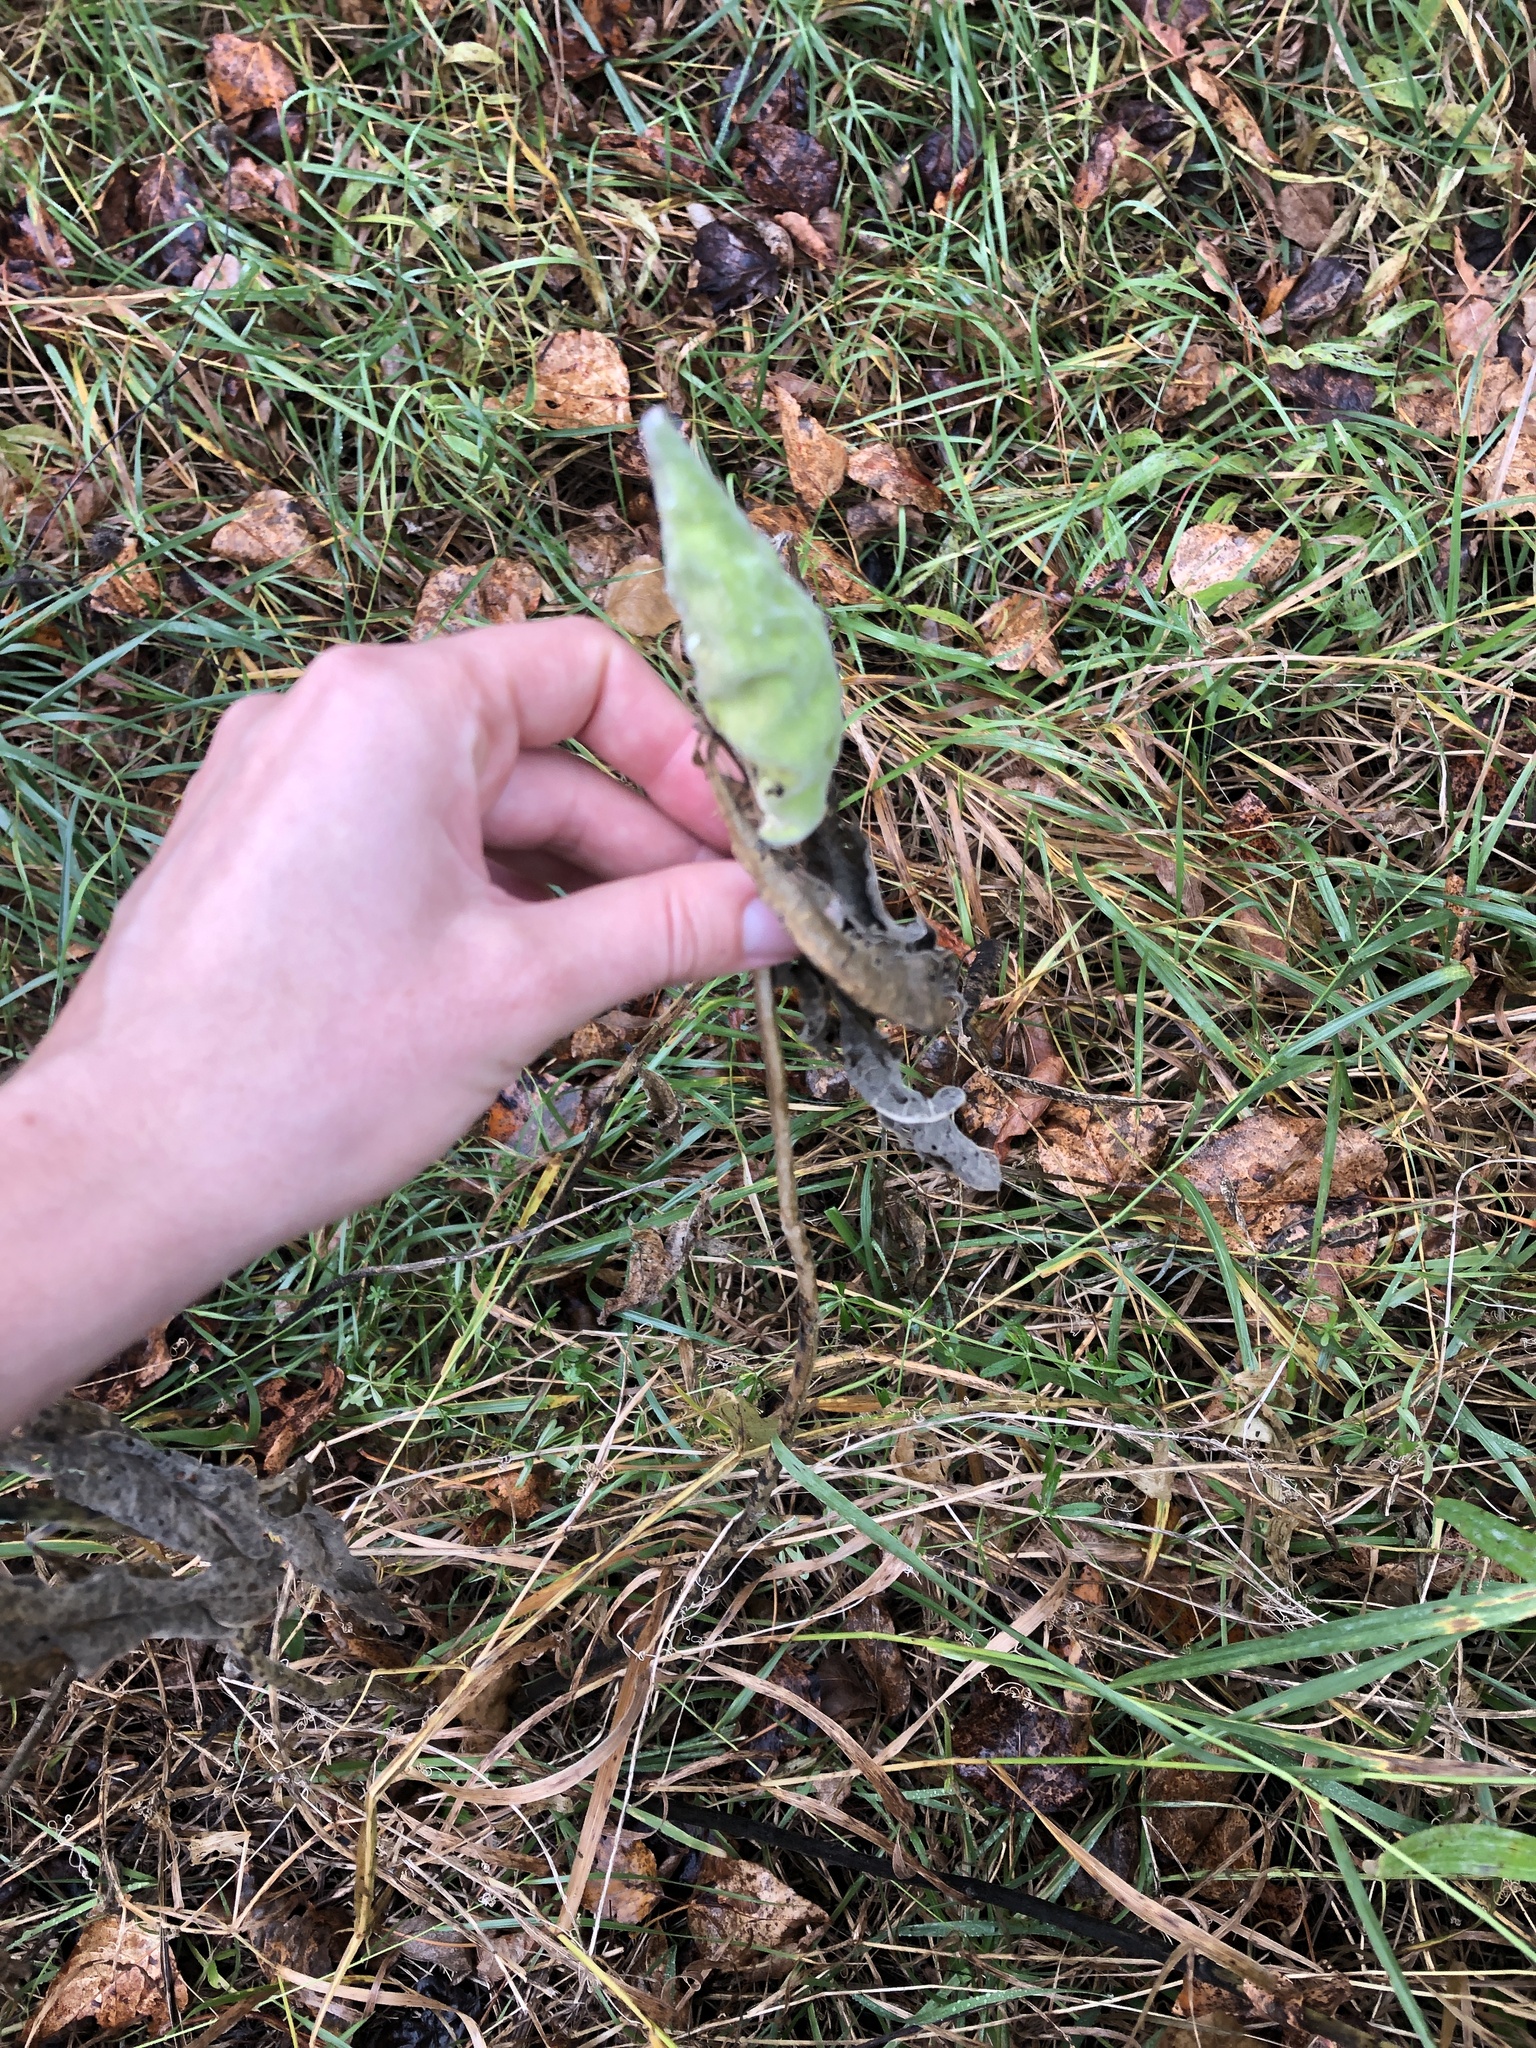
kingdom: Plantae
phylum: Tracheophyta
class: Magnoliopsida
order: Gentianales
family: Apocynaceae
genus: Asclepias
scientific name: Asclepias syriaca
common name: Common milkweed
